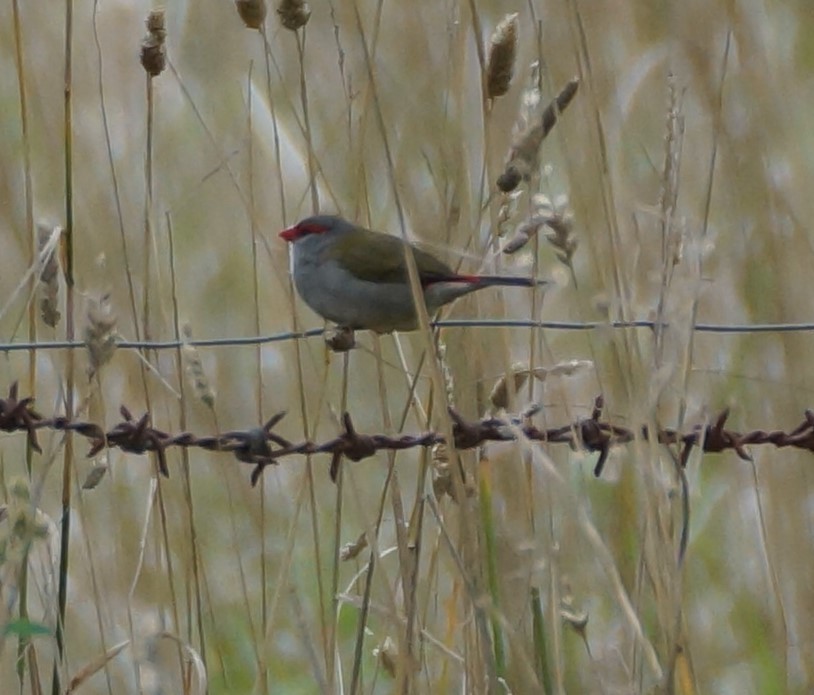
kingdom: Animalia
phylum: Chordata
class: Aves
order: Passeriformes
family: Estrildidae
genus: Neochmia
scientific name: Neochmia temporalis
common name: Red-browed finch
